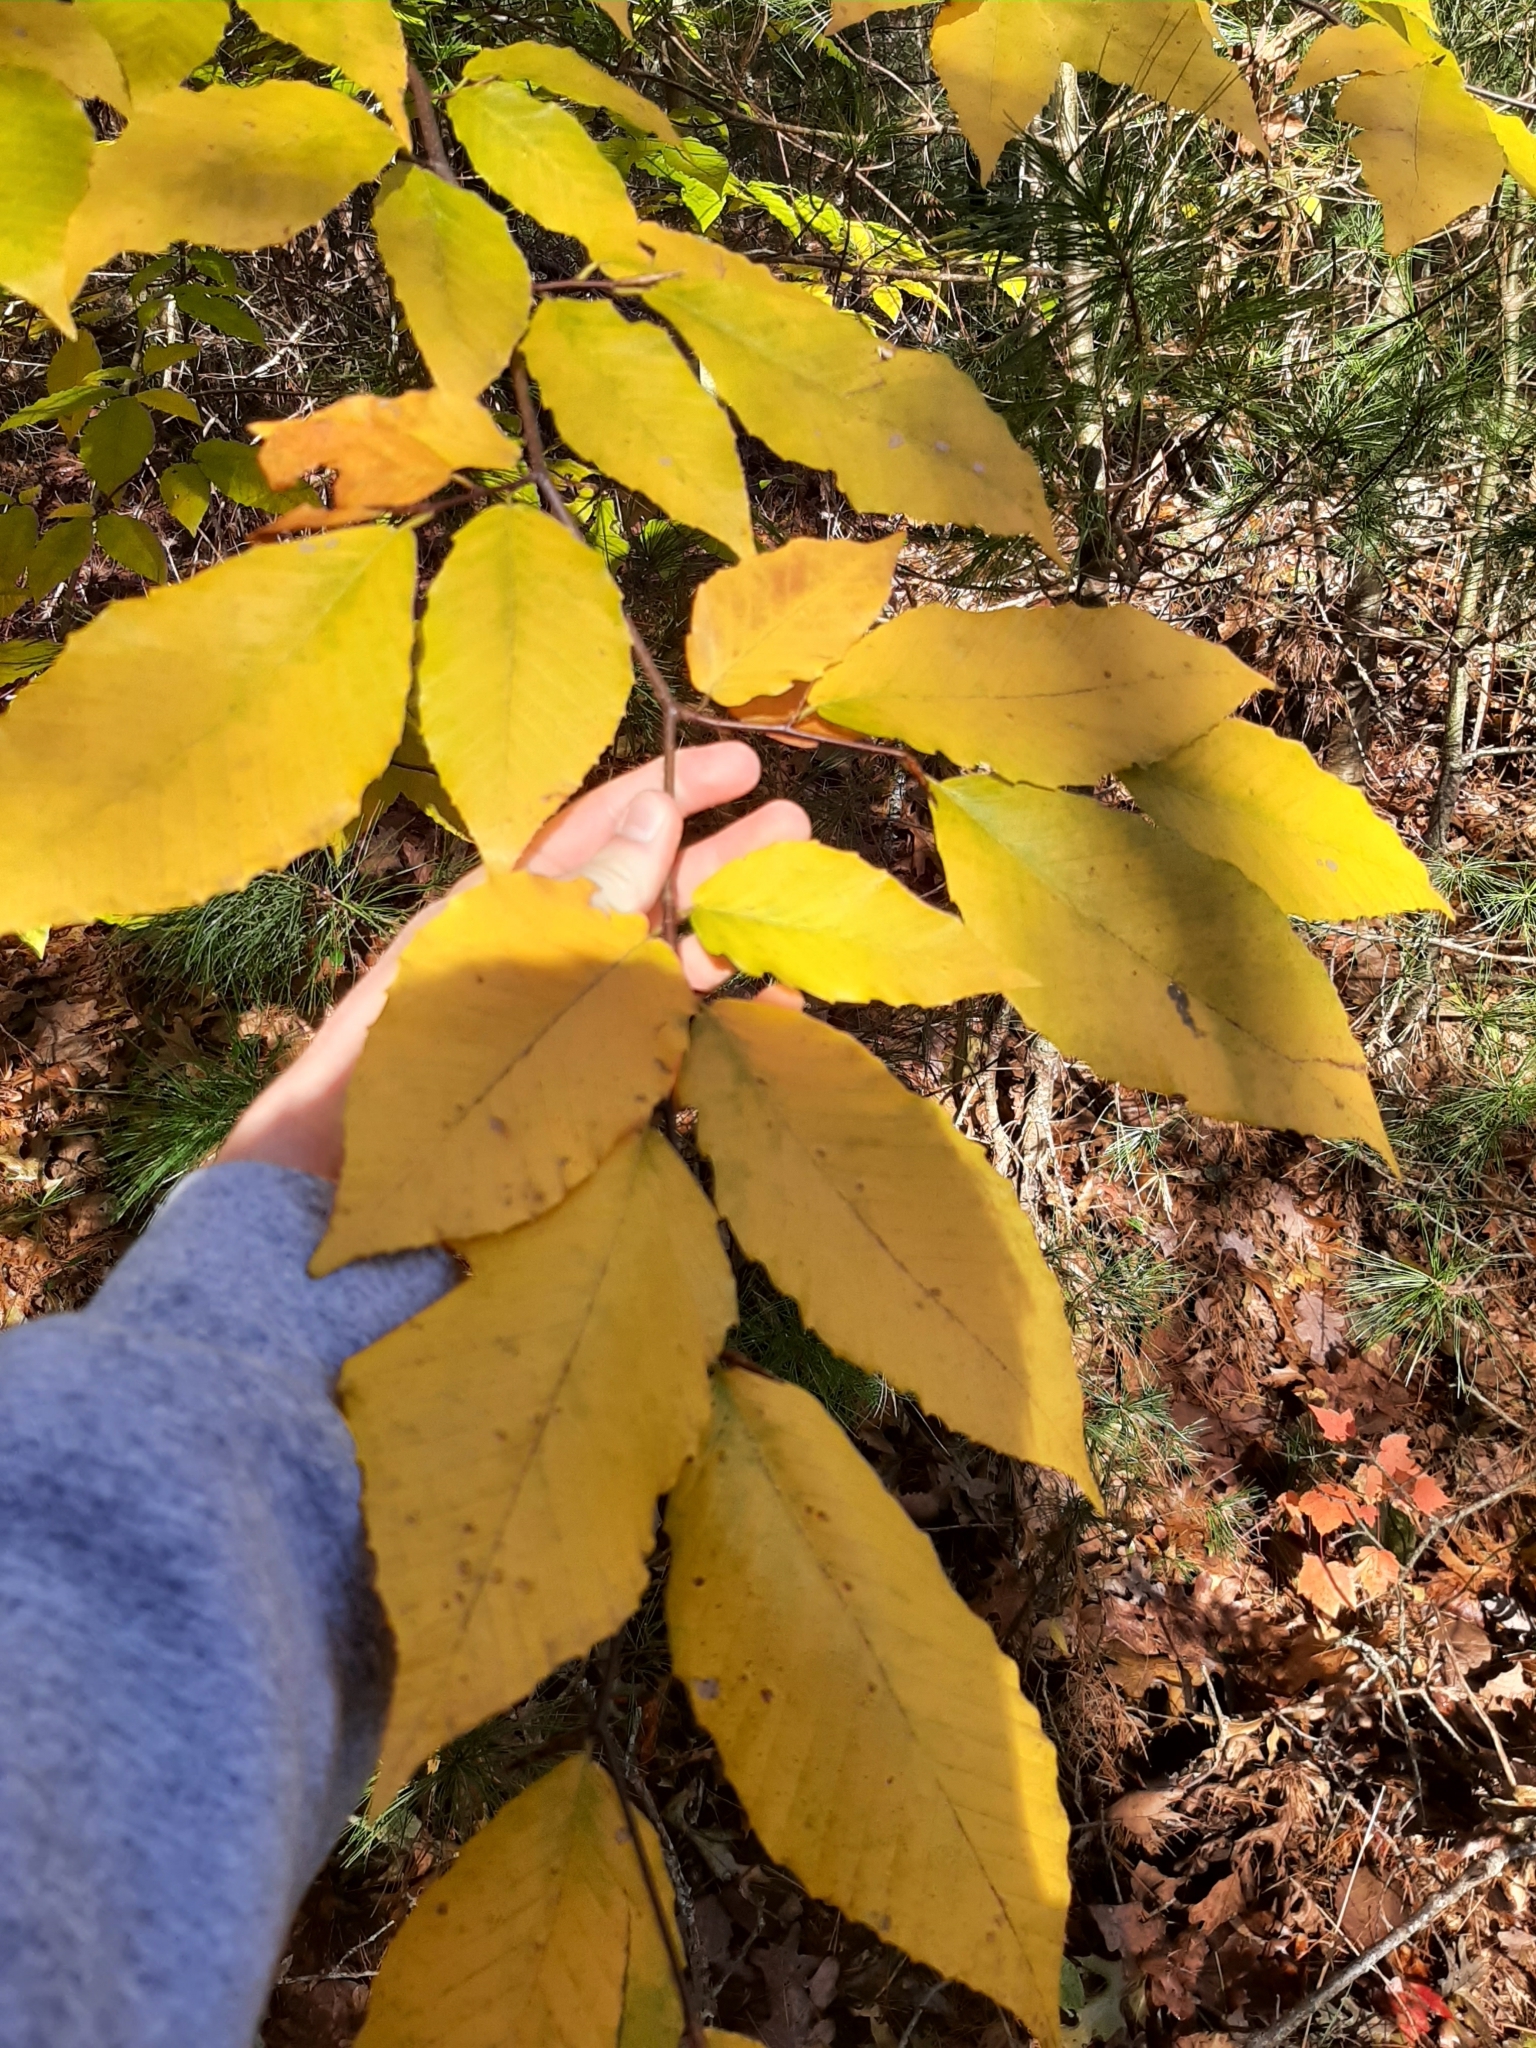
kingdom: Plantae
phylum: Tracheophyta
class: Magnoliopsida
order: Fagales
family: Fagaceae
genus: Fagus
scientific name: Fagus grandifolia
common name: American beech
